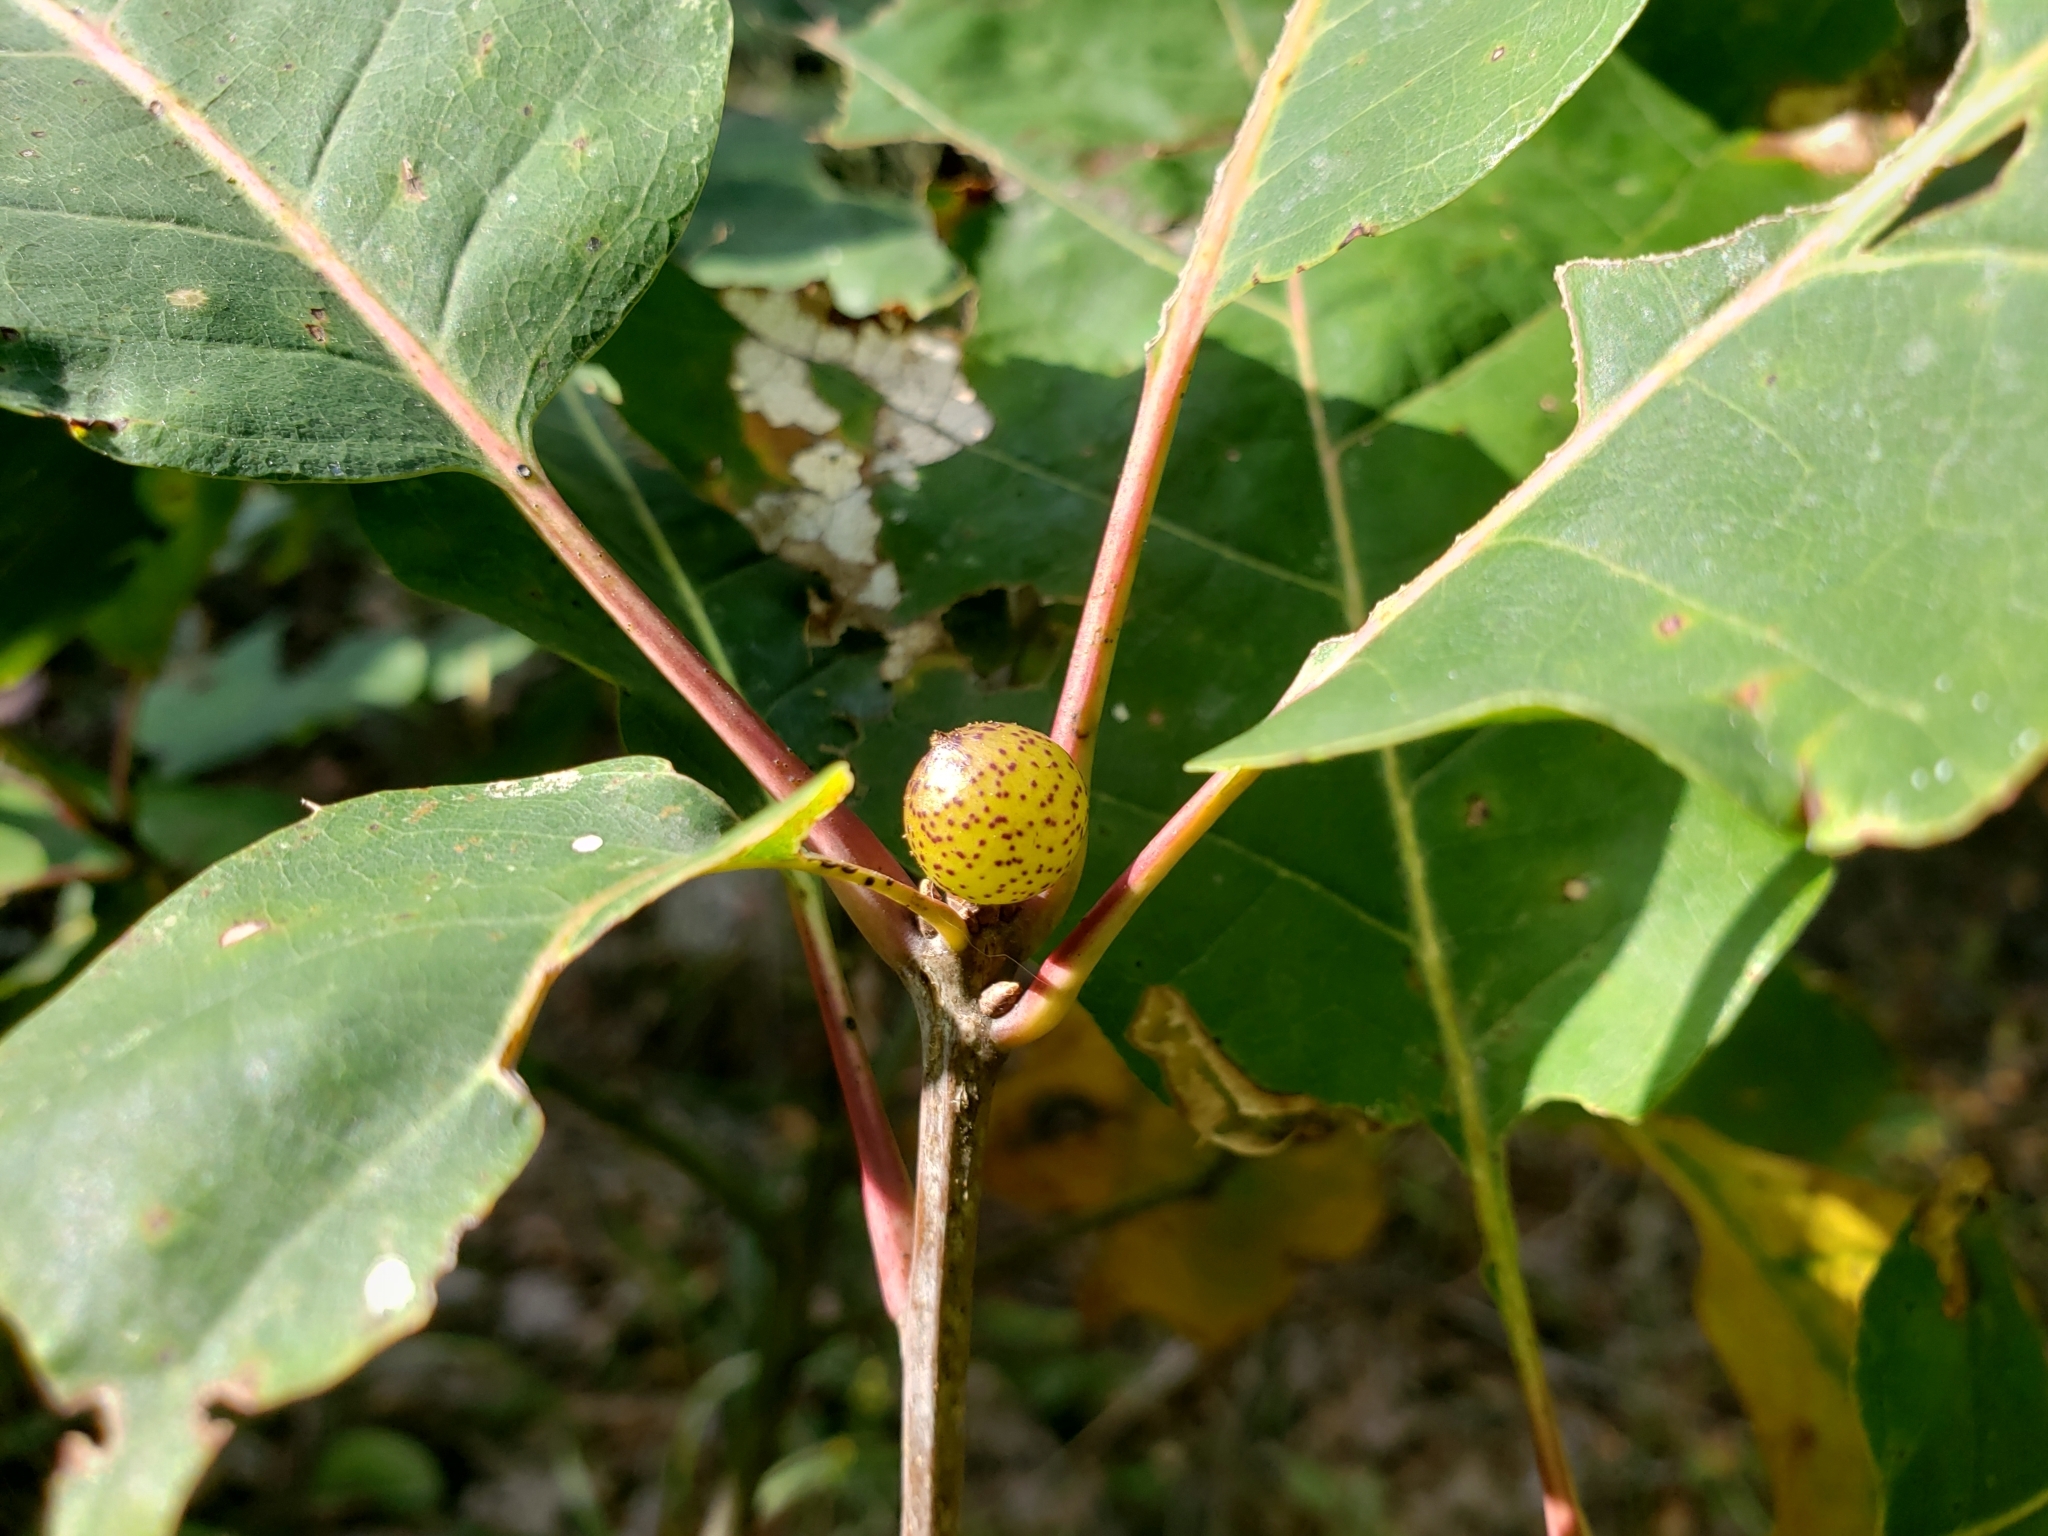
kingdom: Animalia
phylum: Arthropoda
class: Insecta
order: Hymenoptera
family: Cynipidae
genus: Amphibolips
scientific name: Amphibolips
